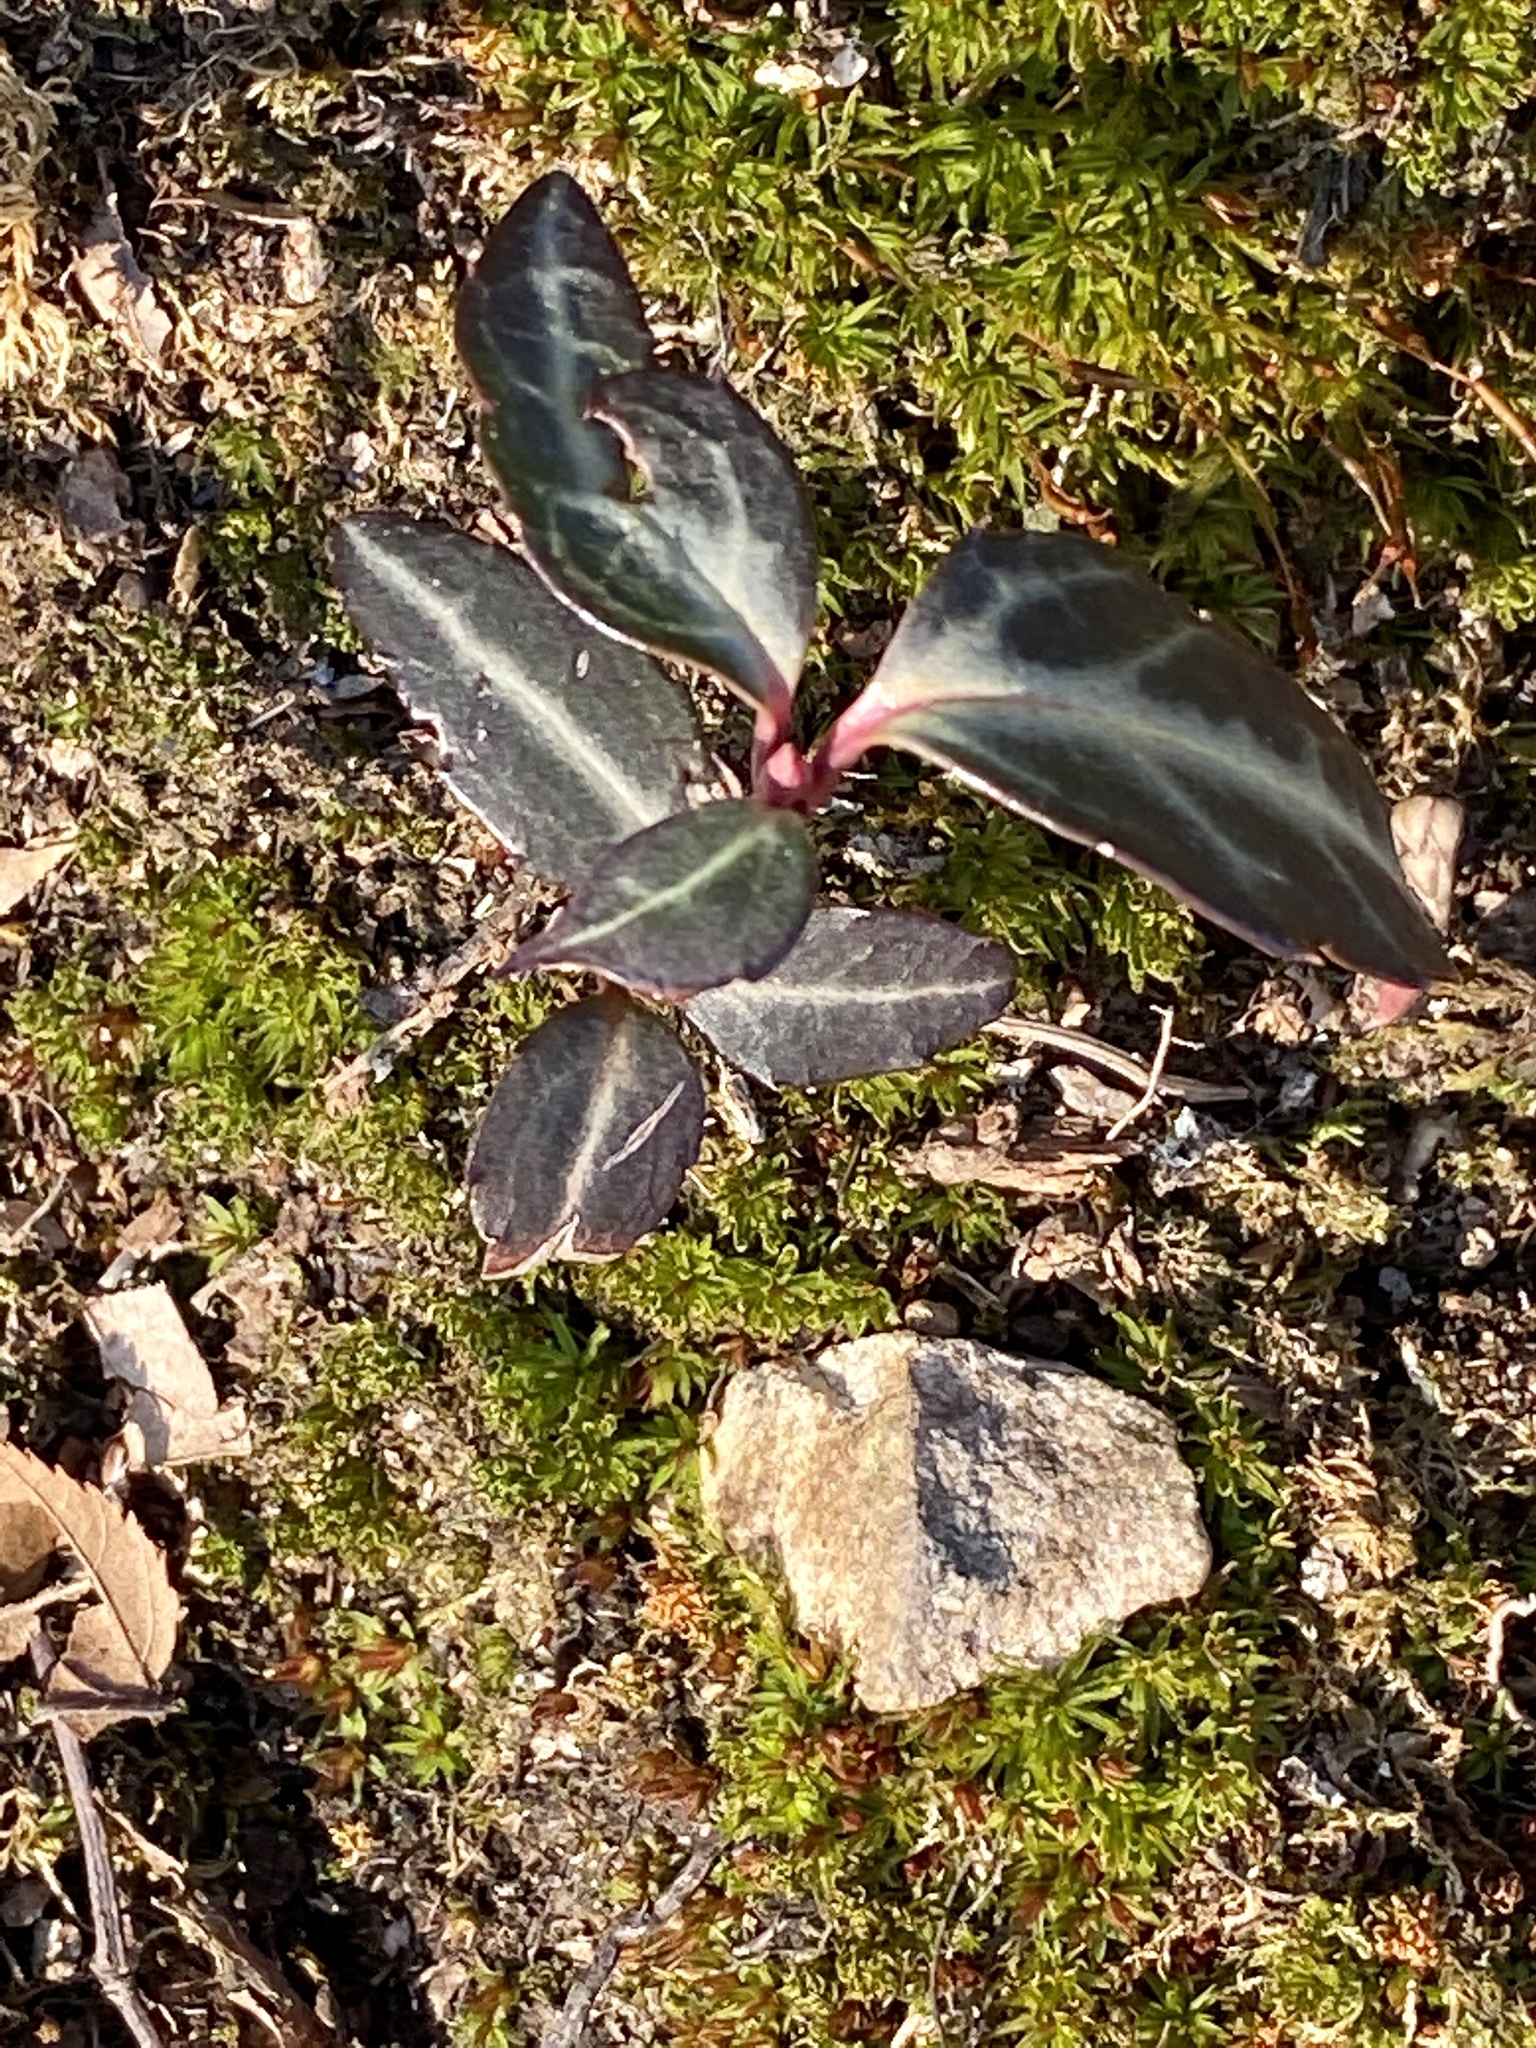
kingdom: Plantae
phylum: Tracheophyta
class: Magnoliopsida
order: Ericales
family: Ericaceae
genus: Chimaphila
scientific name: Chimaphila maculata
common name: Spotted pipsissewa
